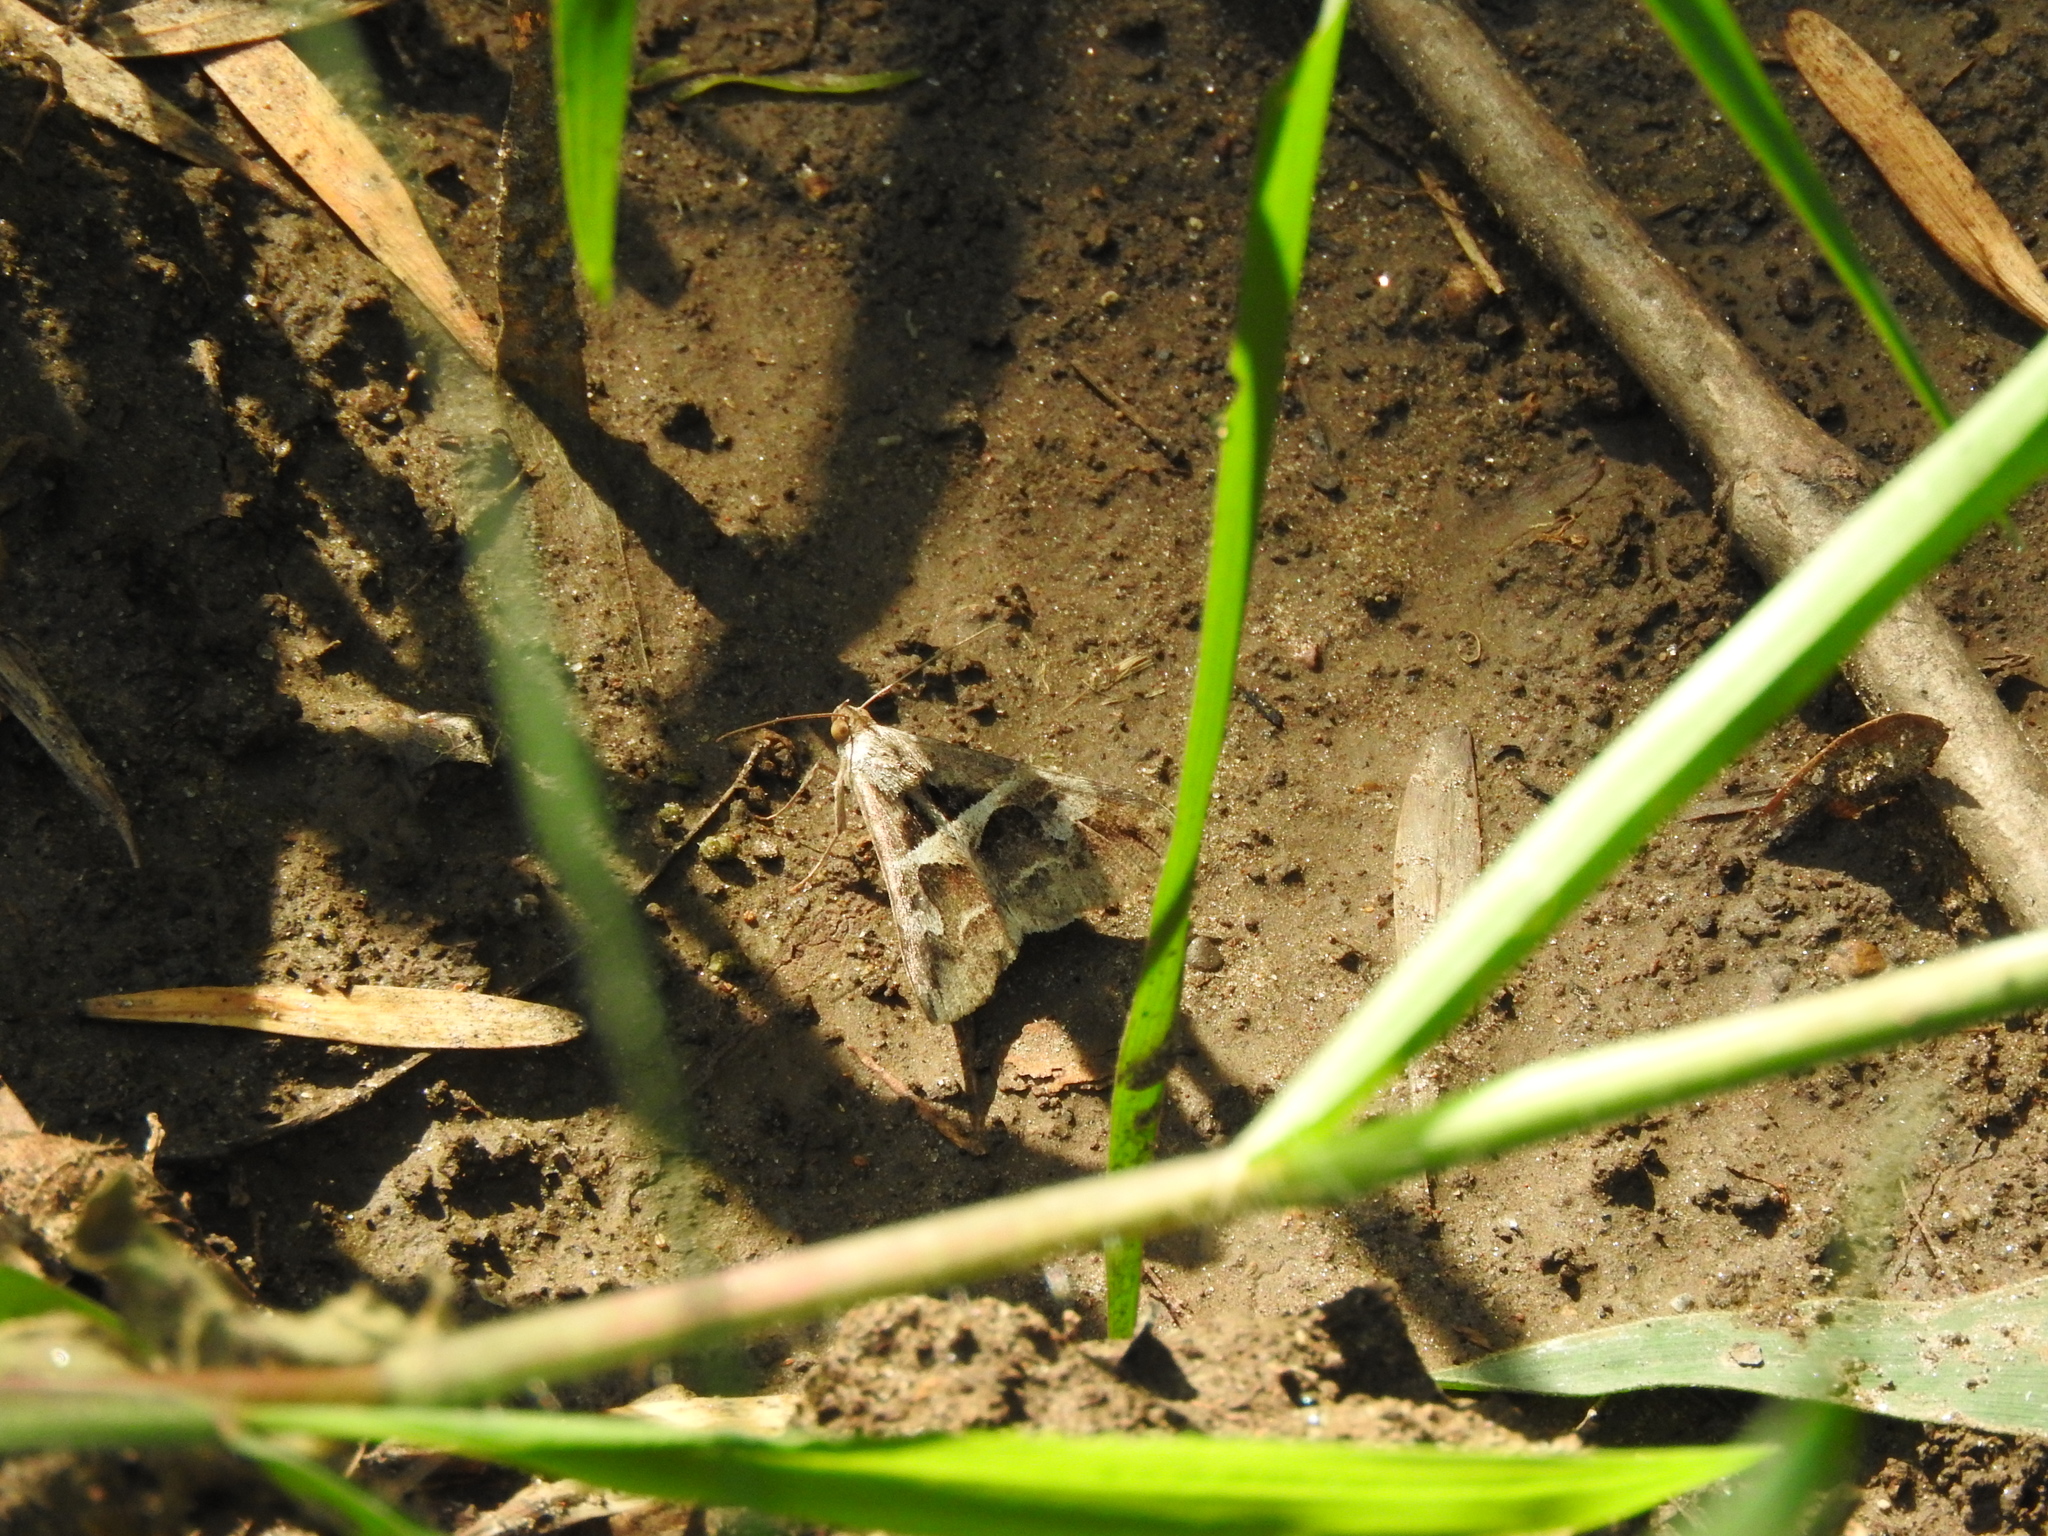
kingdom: Animalia
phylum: Arthropoda
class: Insecta
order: Lepidoptera
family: Erebidae
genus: Melipotis
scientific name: Melipotis cellaris
